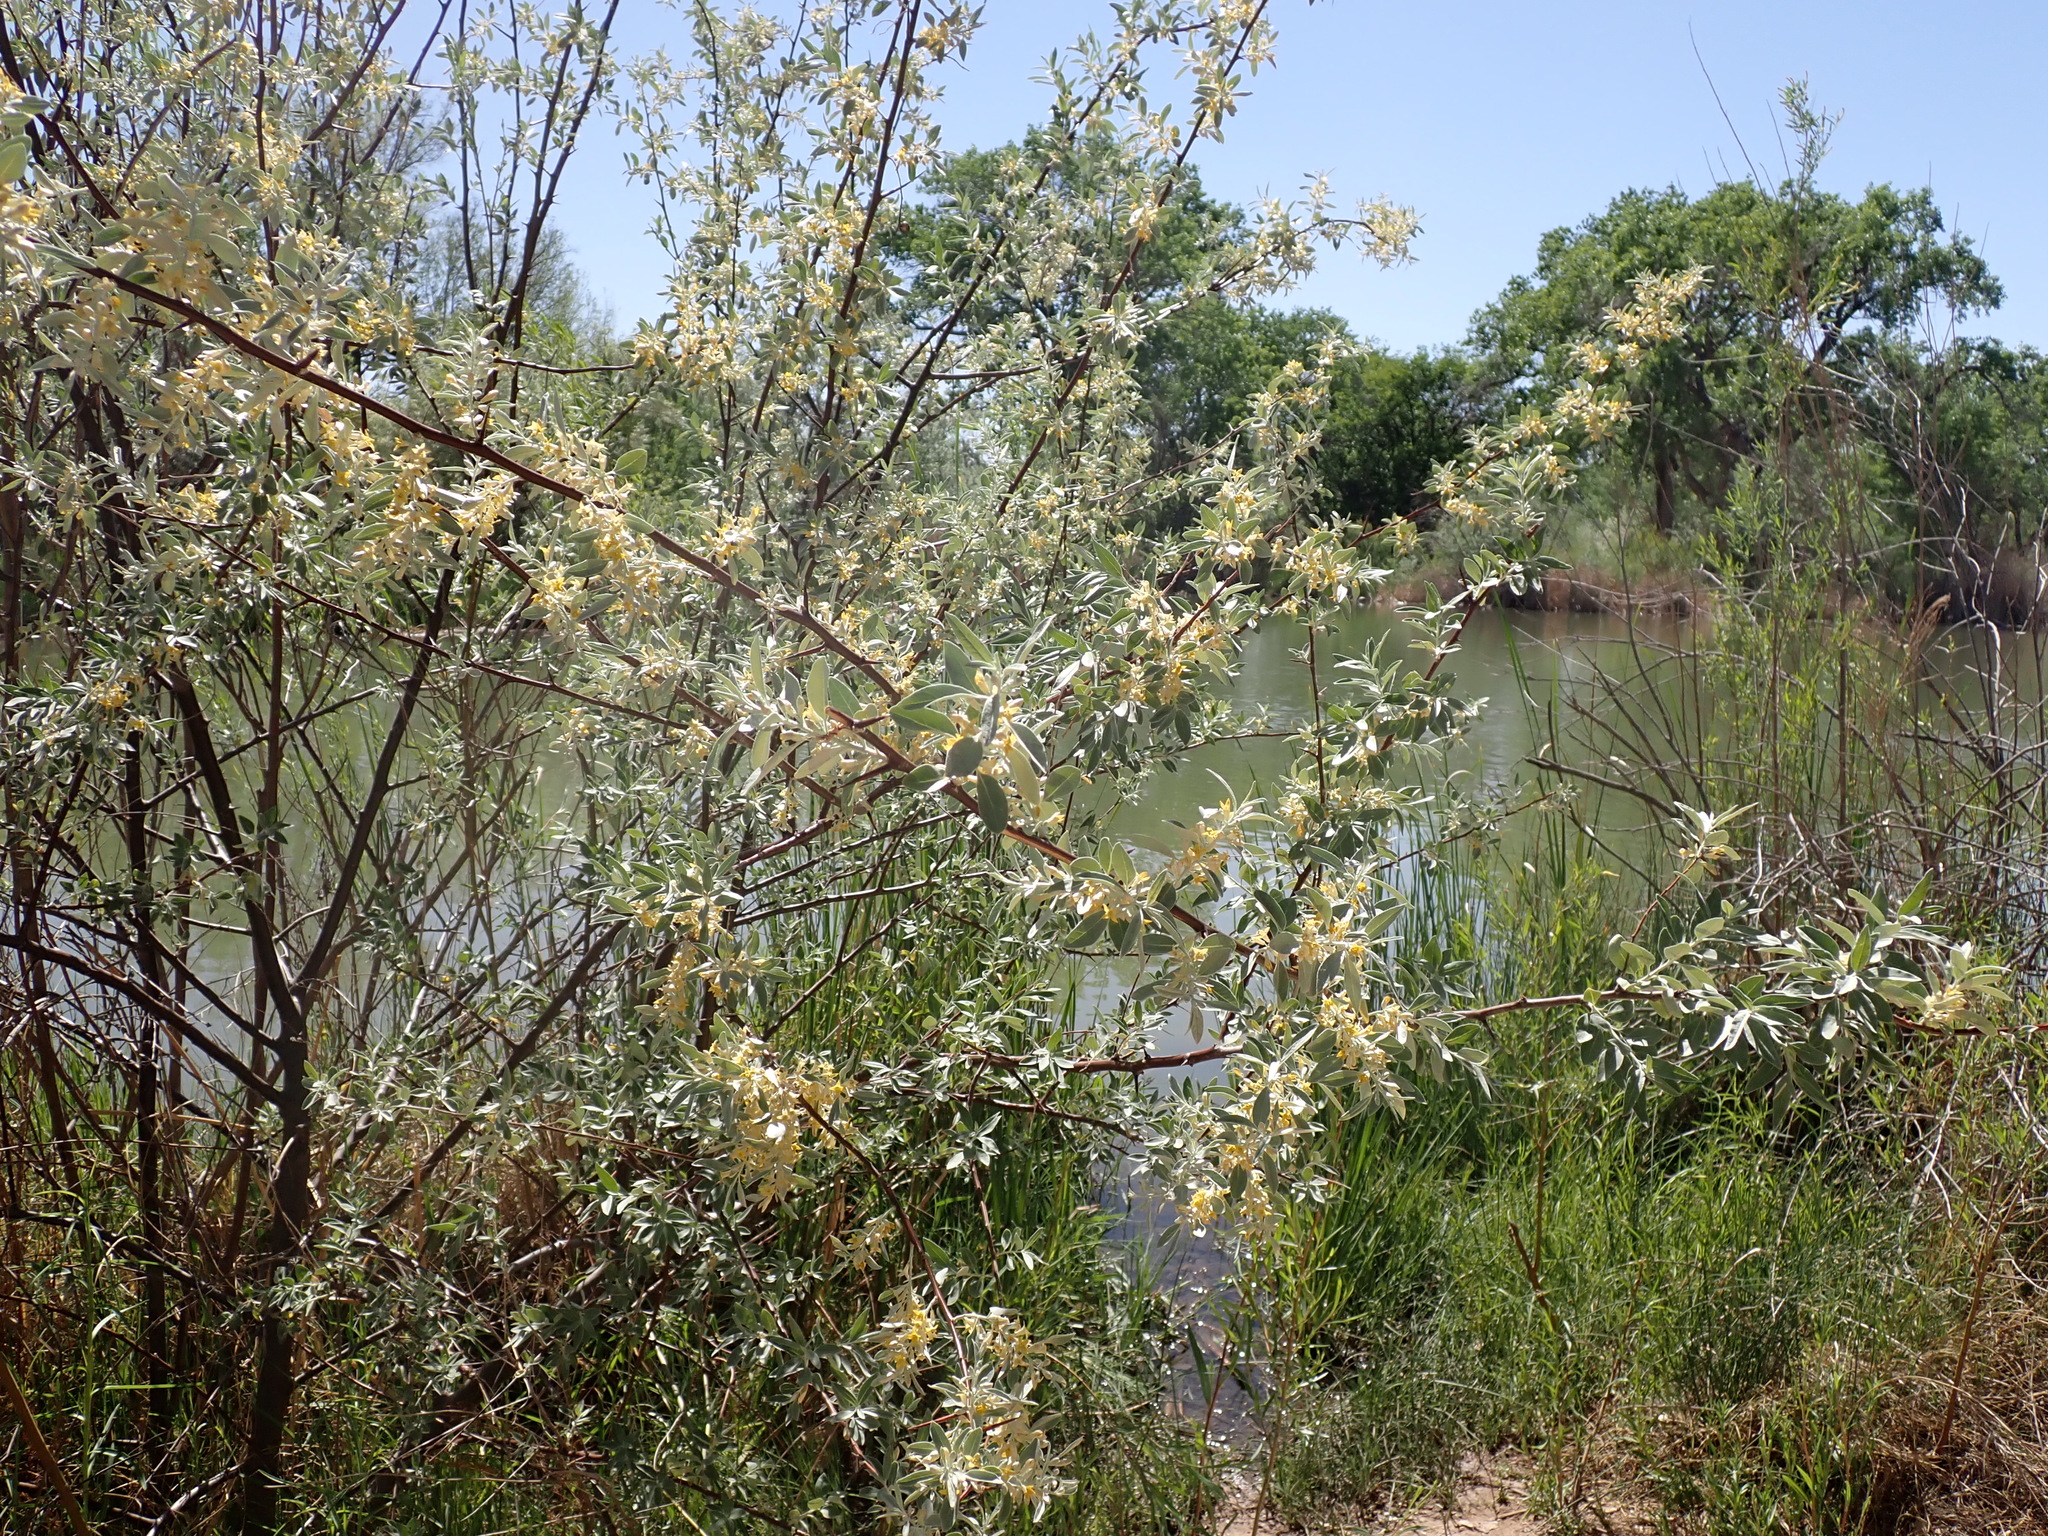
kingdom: Plantae
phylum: Tracheophyta
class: Magnoliopsida
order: Rosales
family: Elaeagnaceae
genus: Elaeagnus
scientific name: Elaeagnus angustifolia
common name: Russian olive
